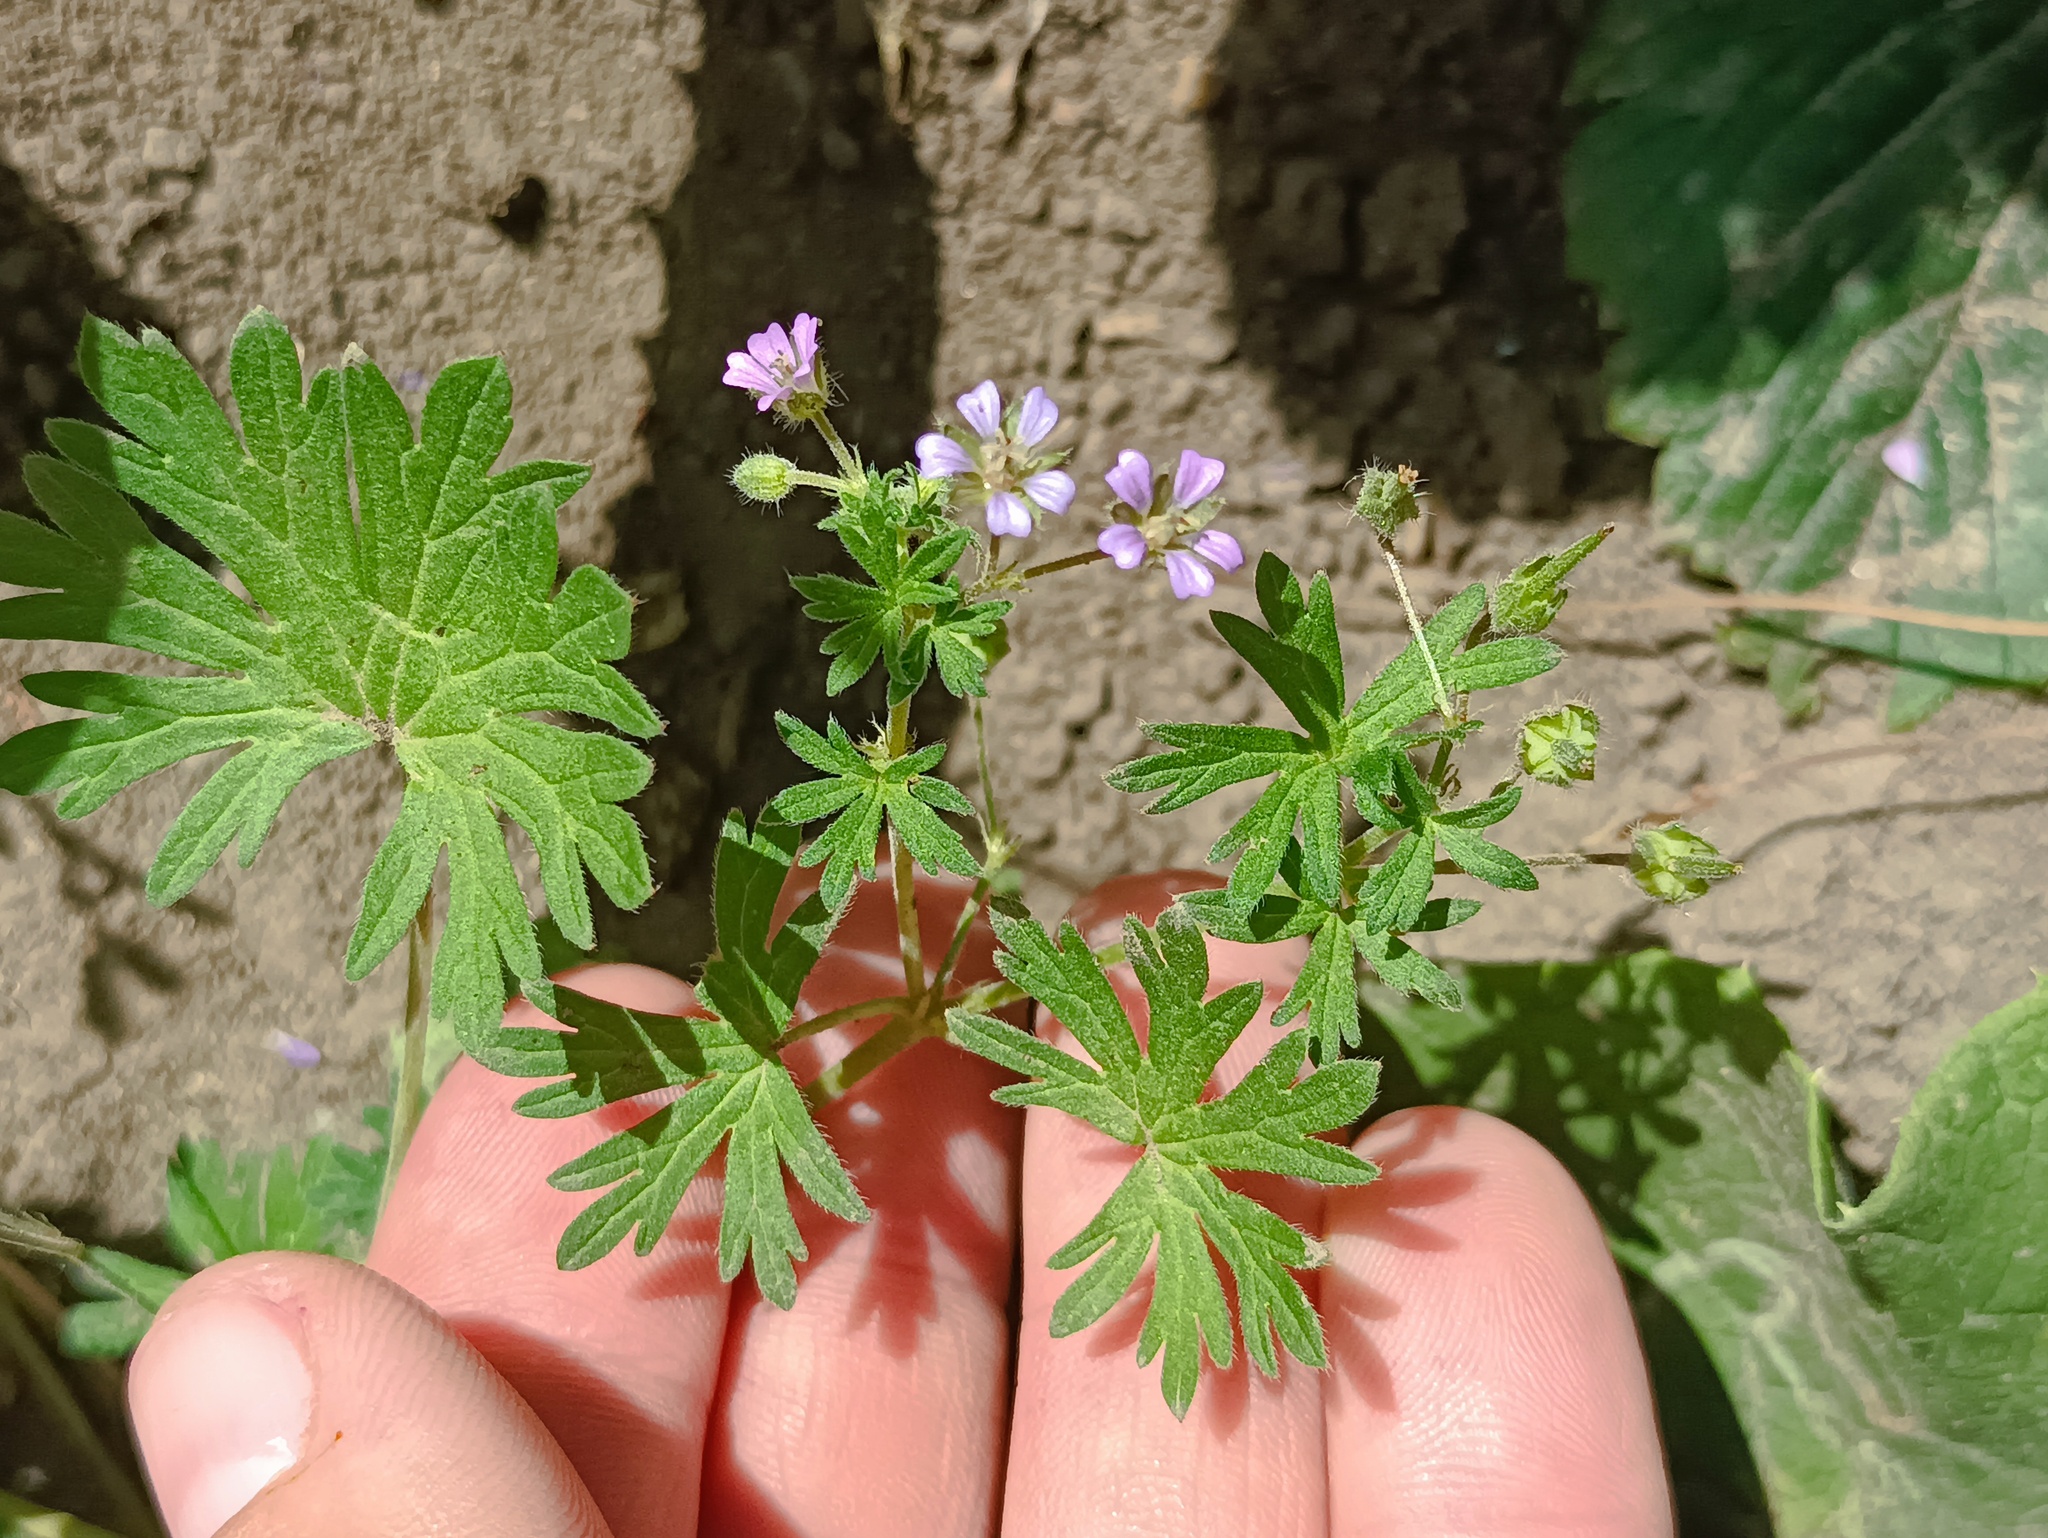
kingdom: Plantae
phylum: Tracheophyta
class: Magnoliopsida
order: Geraniales
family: Geraniaceae
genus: Geranium
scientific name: Geranium pusillum
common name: Small geranium
